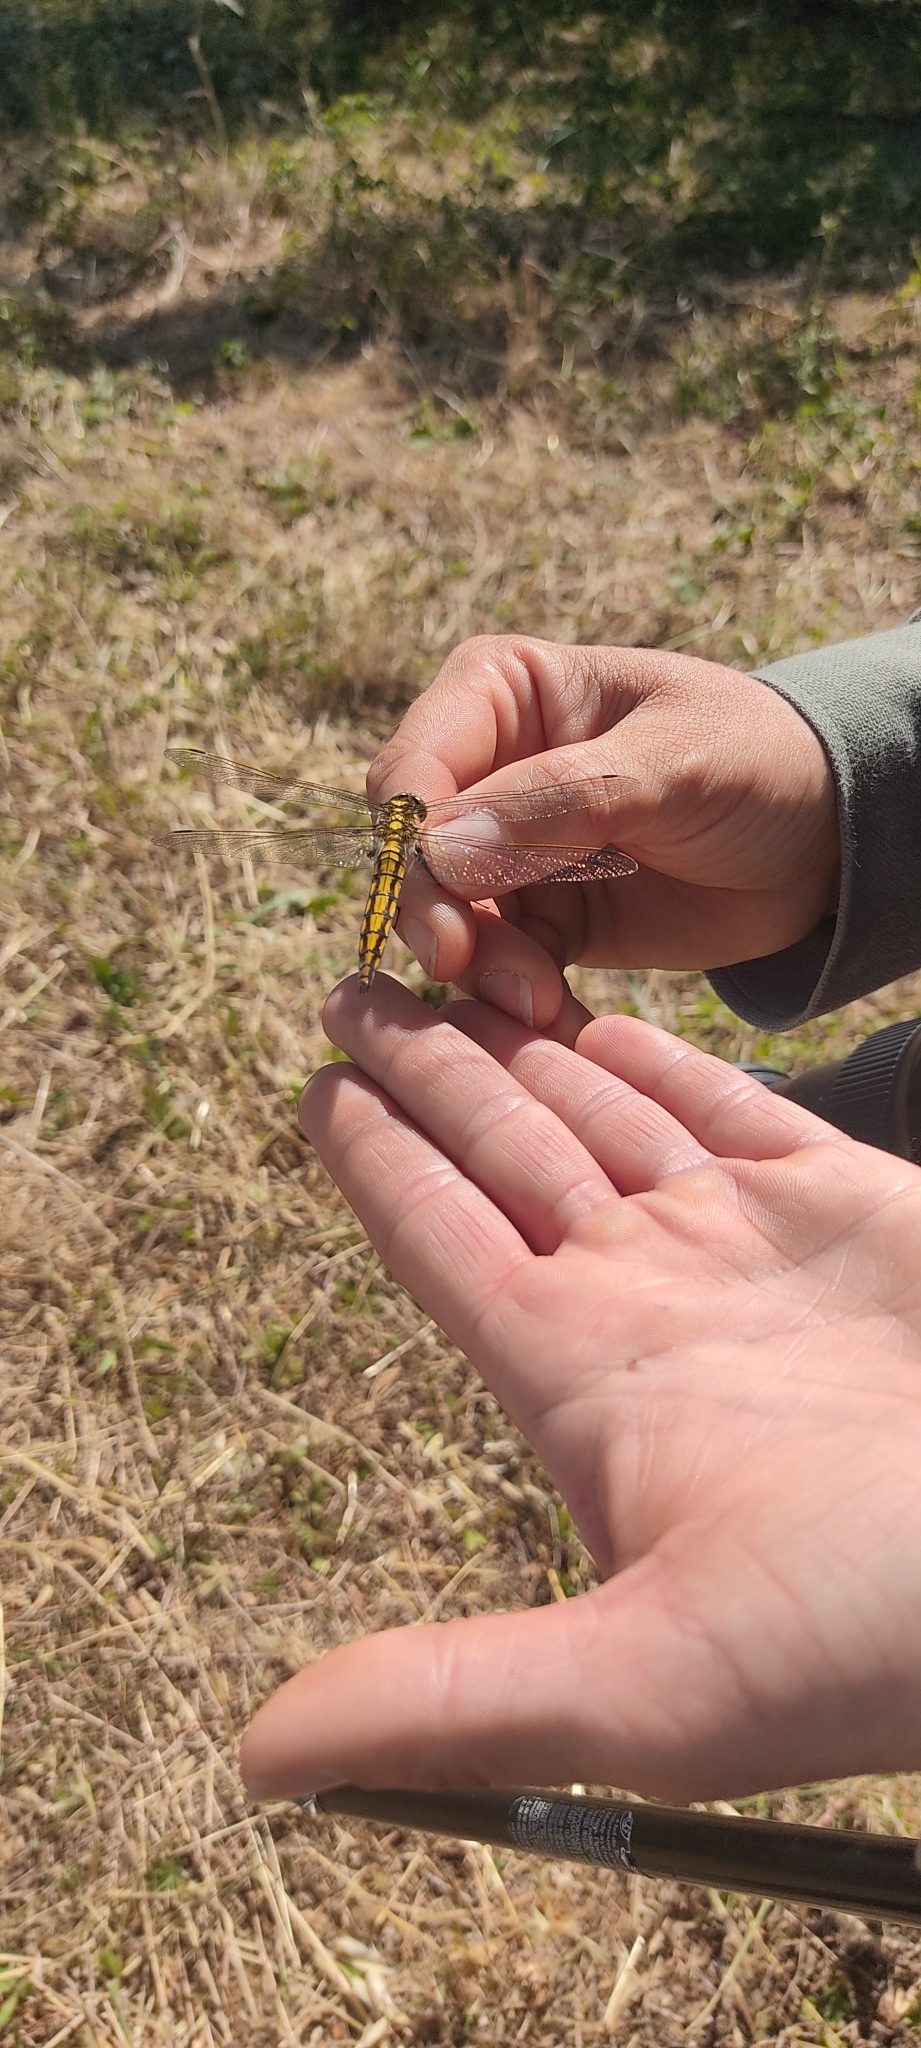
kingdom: Animalia
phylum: Arthropoda
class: Insecta
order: Odonata
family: Libellulidae
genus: Orthetrum
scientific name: Orthetrum cancellatum
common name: Black-tailed skimmer
